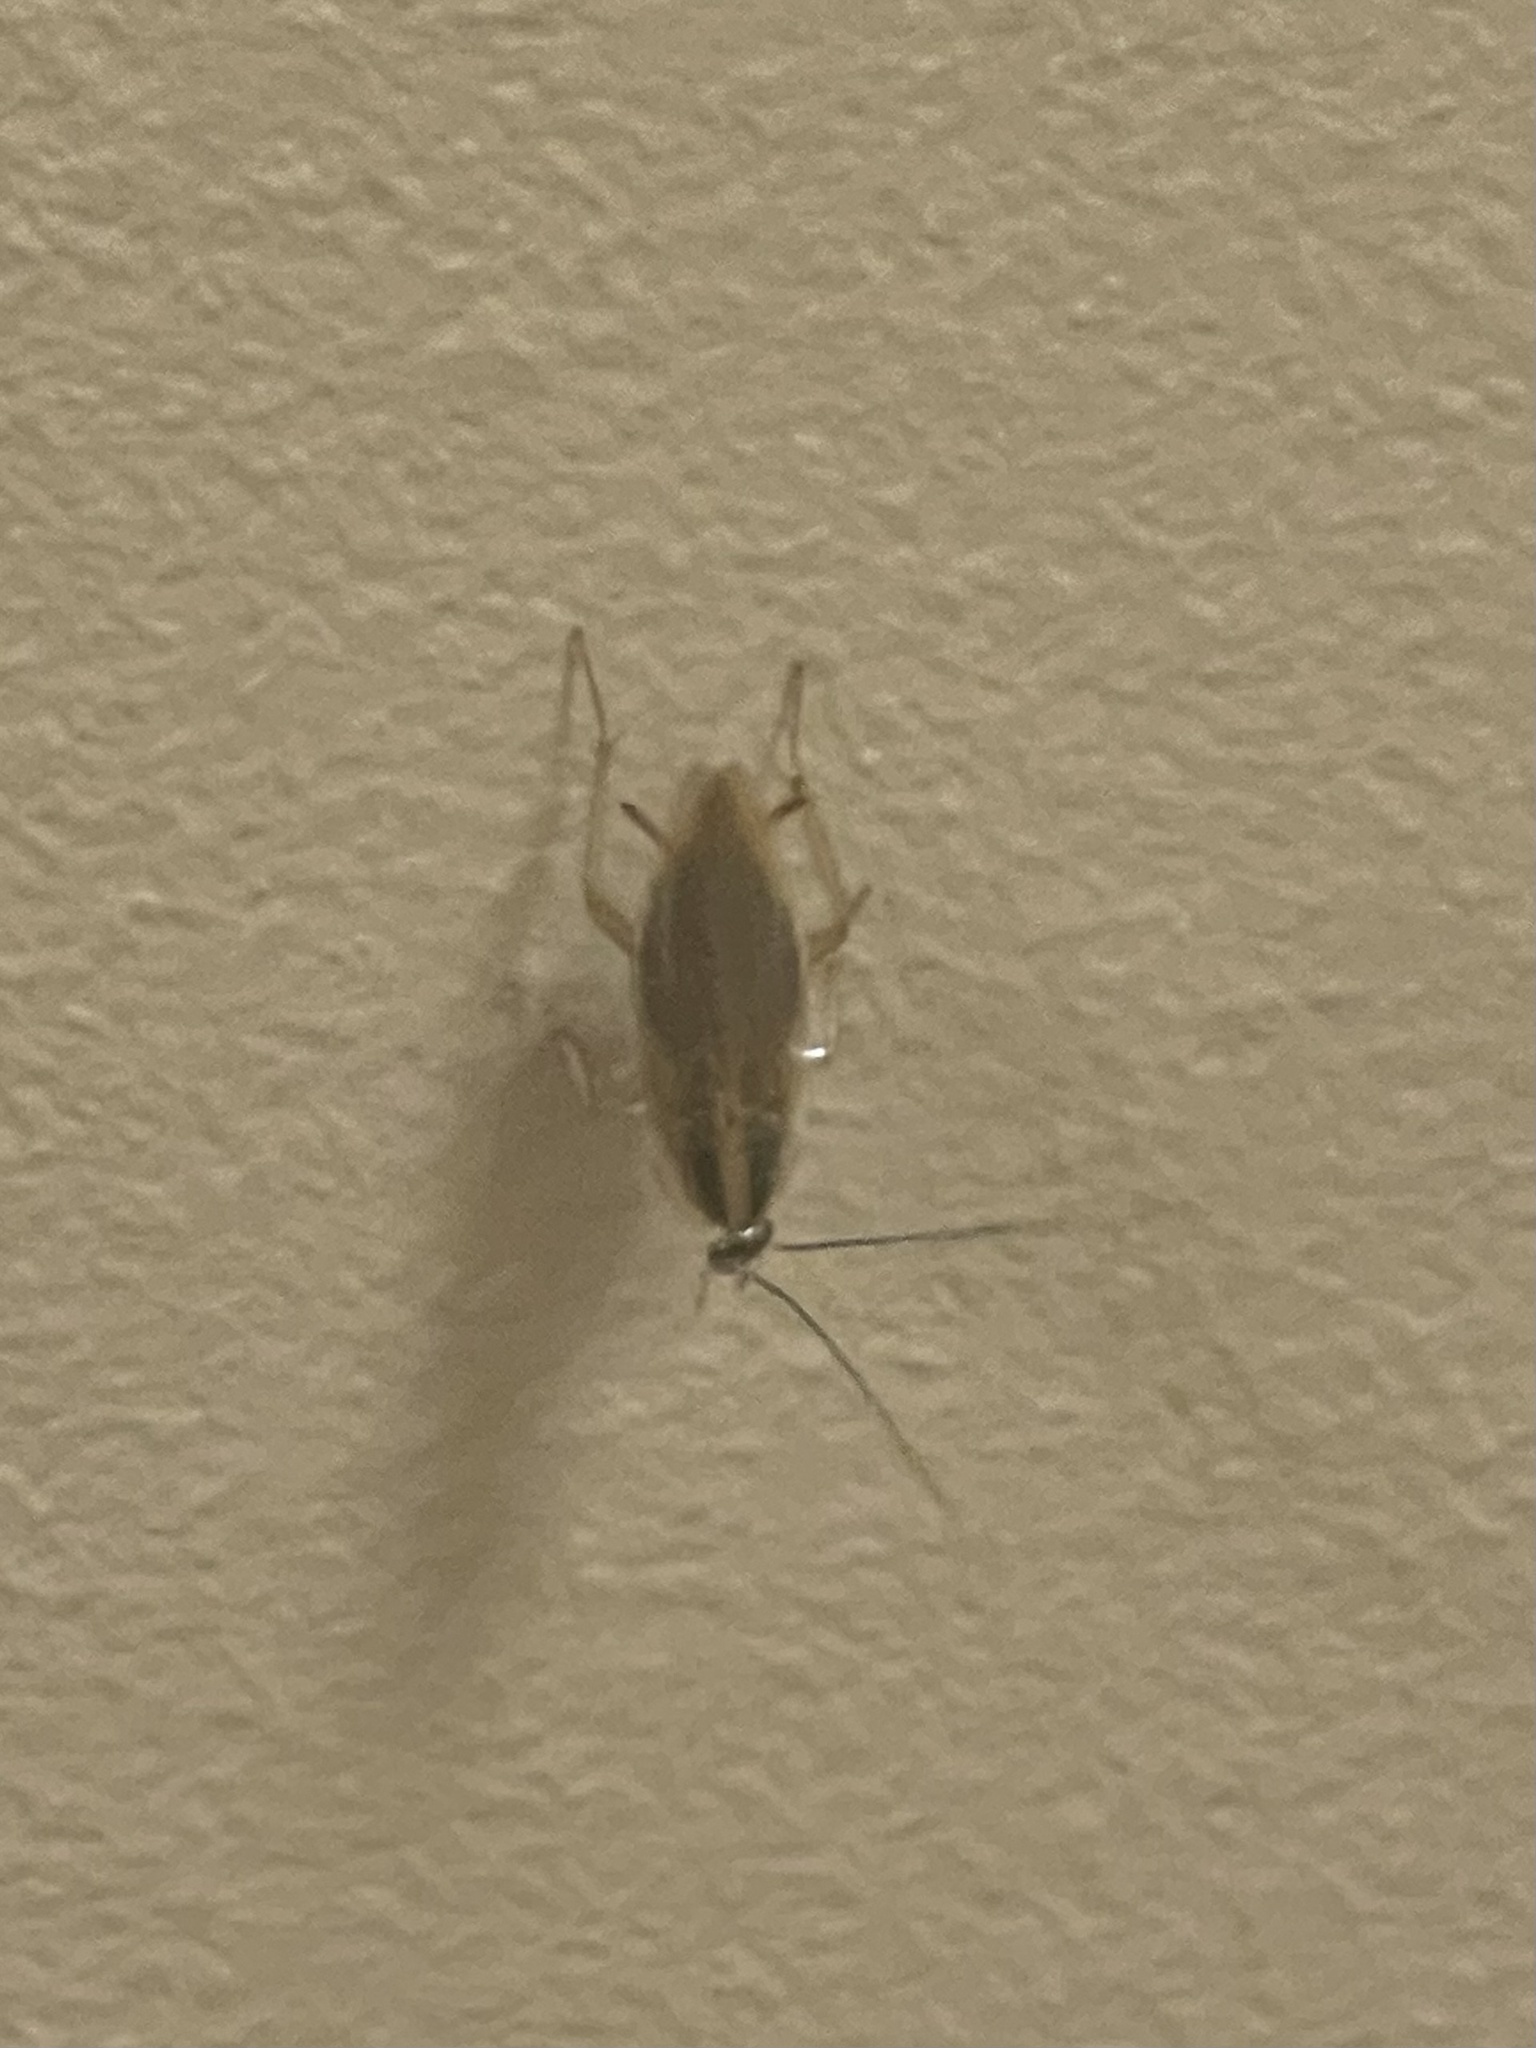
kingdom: Animalia
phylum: Arthropoda
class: Insecta
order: Blattodea
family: Ectobiidae
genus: Blattella
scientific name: Blattella germanica
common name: German cockroach
